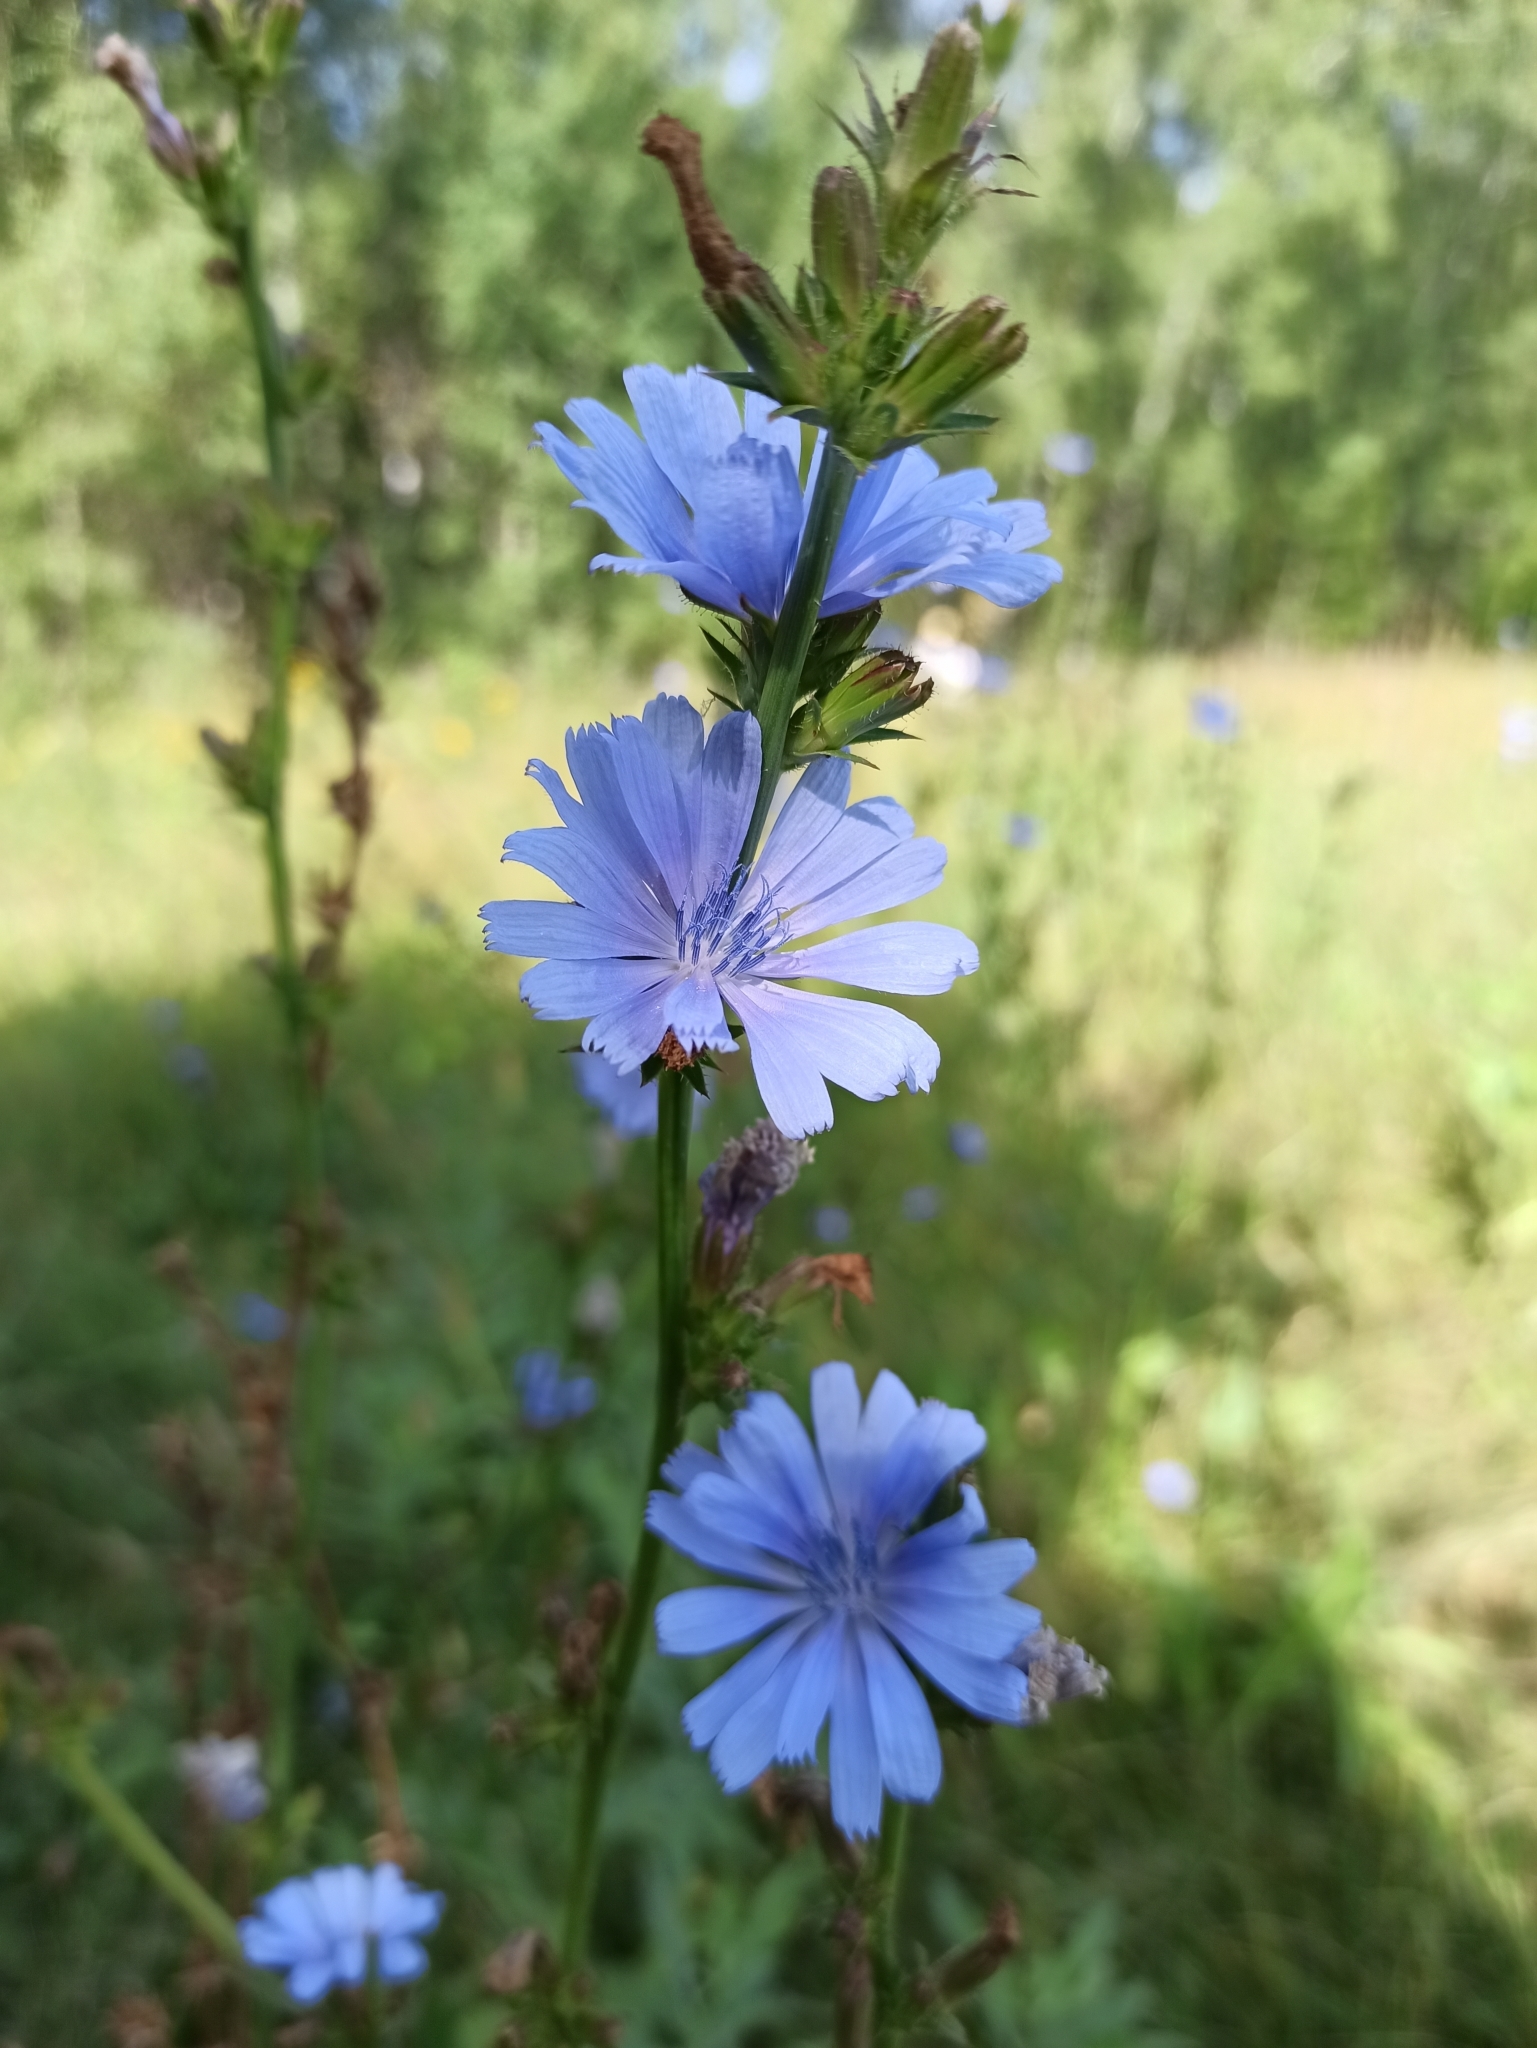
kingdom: Plantae
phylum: Tracheophyta
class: Magnoliopsida
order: Asterales
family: Asteraceae
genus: Cichorium
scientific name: Cichorium intybus
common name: Chicory
